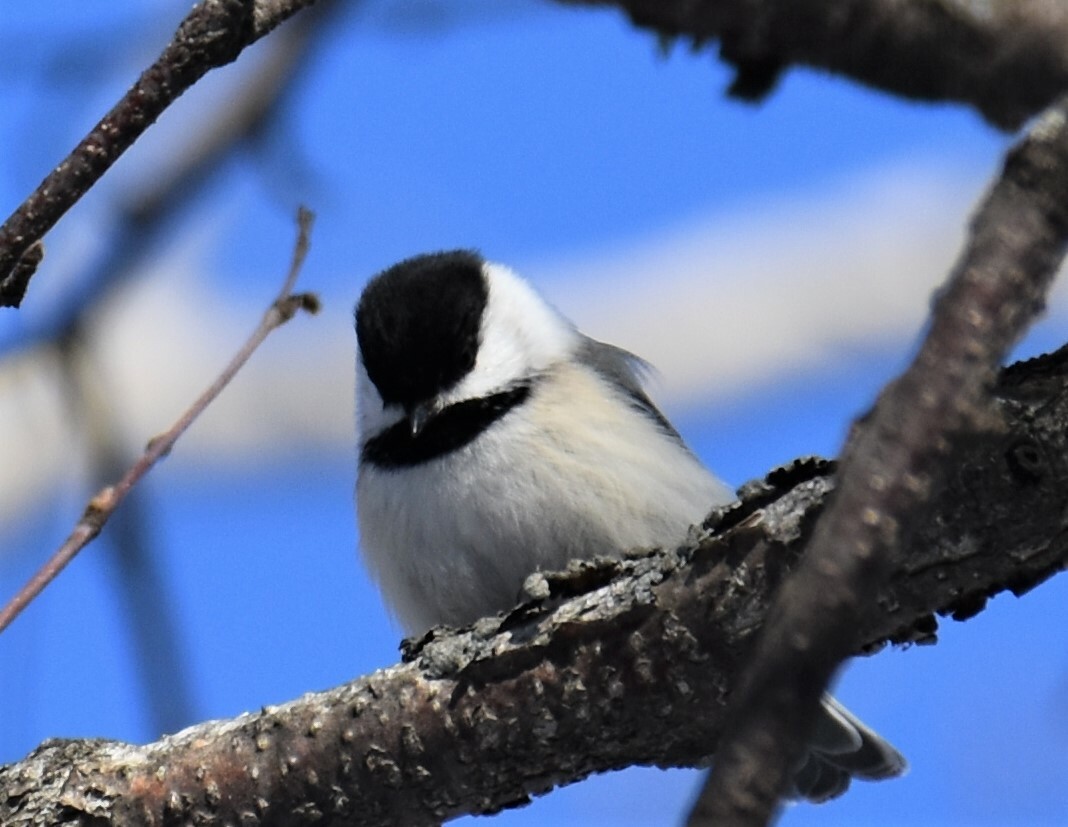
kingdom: Animalia
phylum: Chordata
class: Aves
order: Passeriformes
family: Paridae
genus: Poecile
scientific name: Poecile atricapillus
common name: Black-capped chickadee
